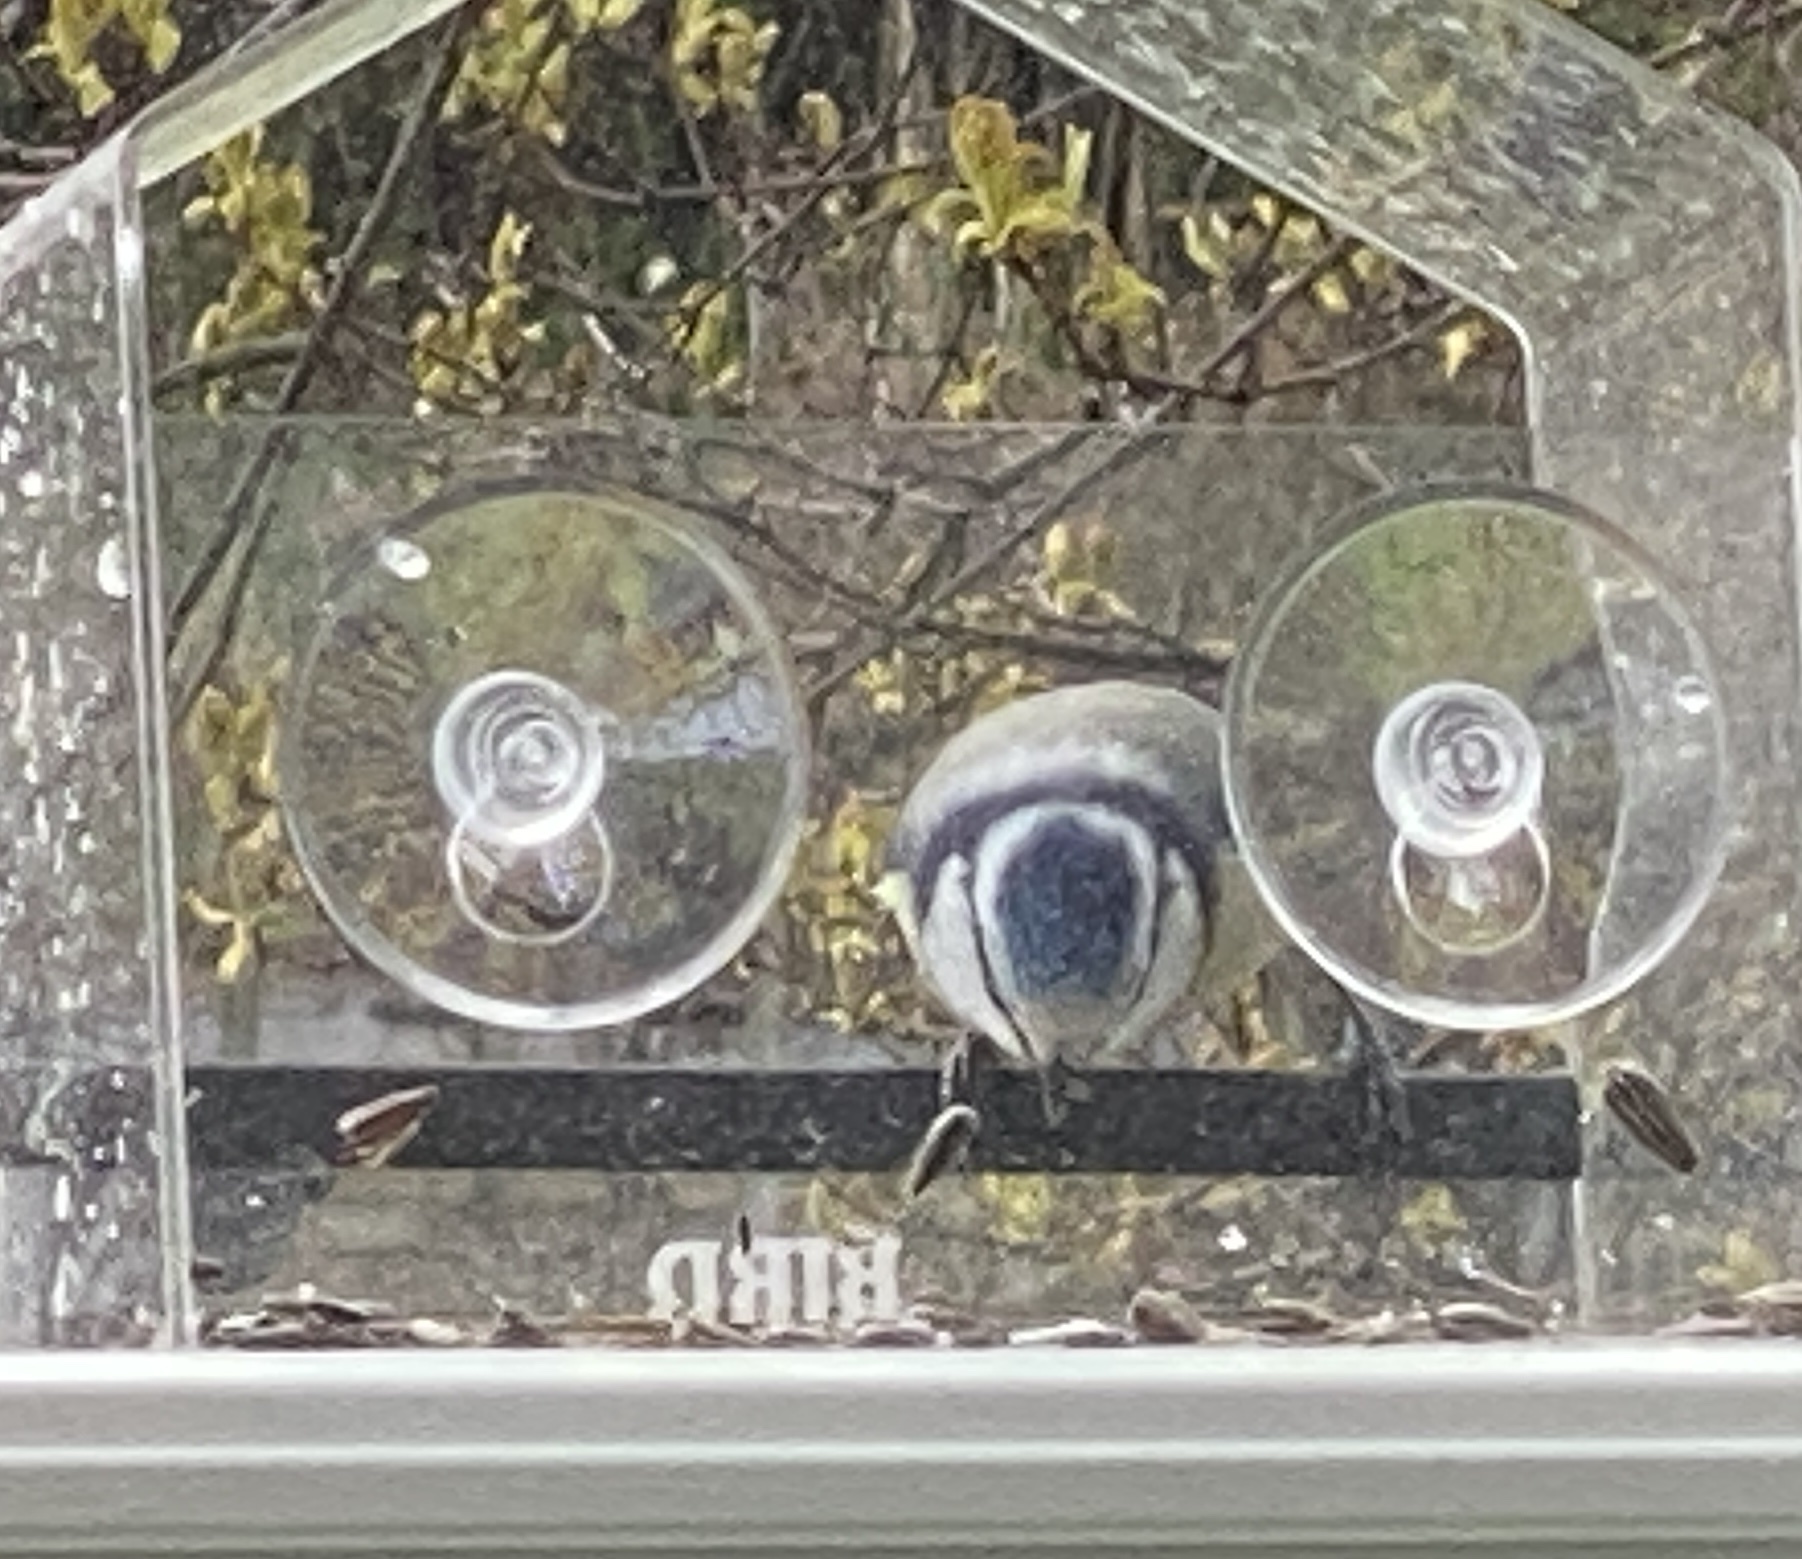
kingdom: Animalia
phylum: Chordata
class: Aves
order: Passeriformes
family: Paridae
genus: Cyanistes
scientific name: Cyanistes caeruleus
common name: Eurasian blue tit
